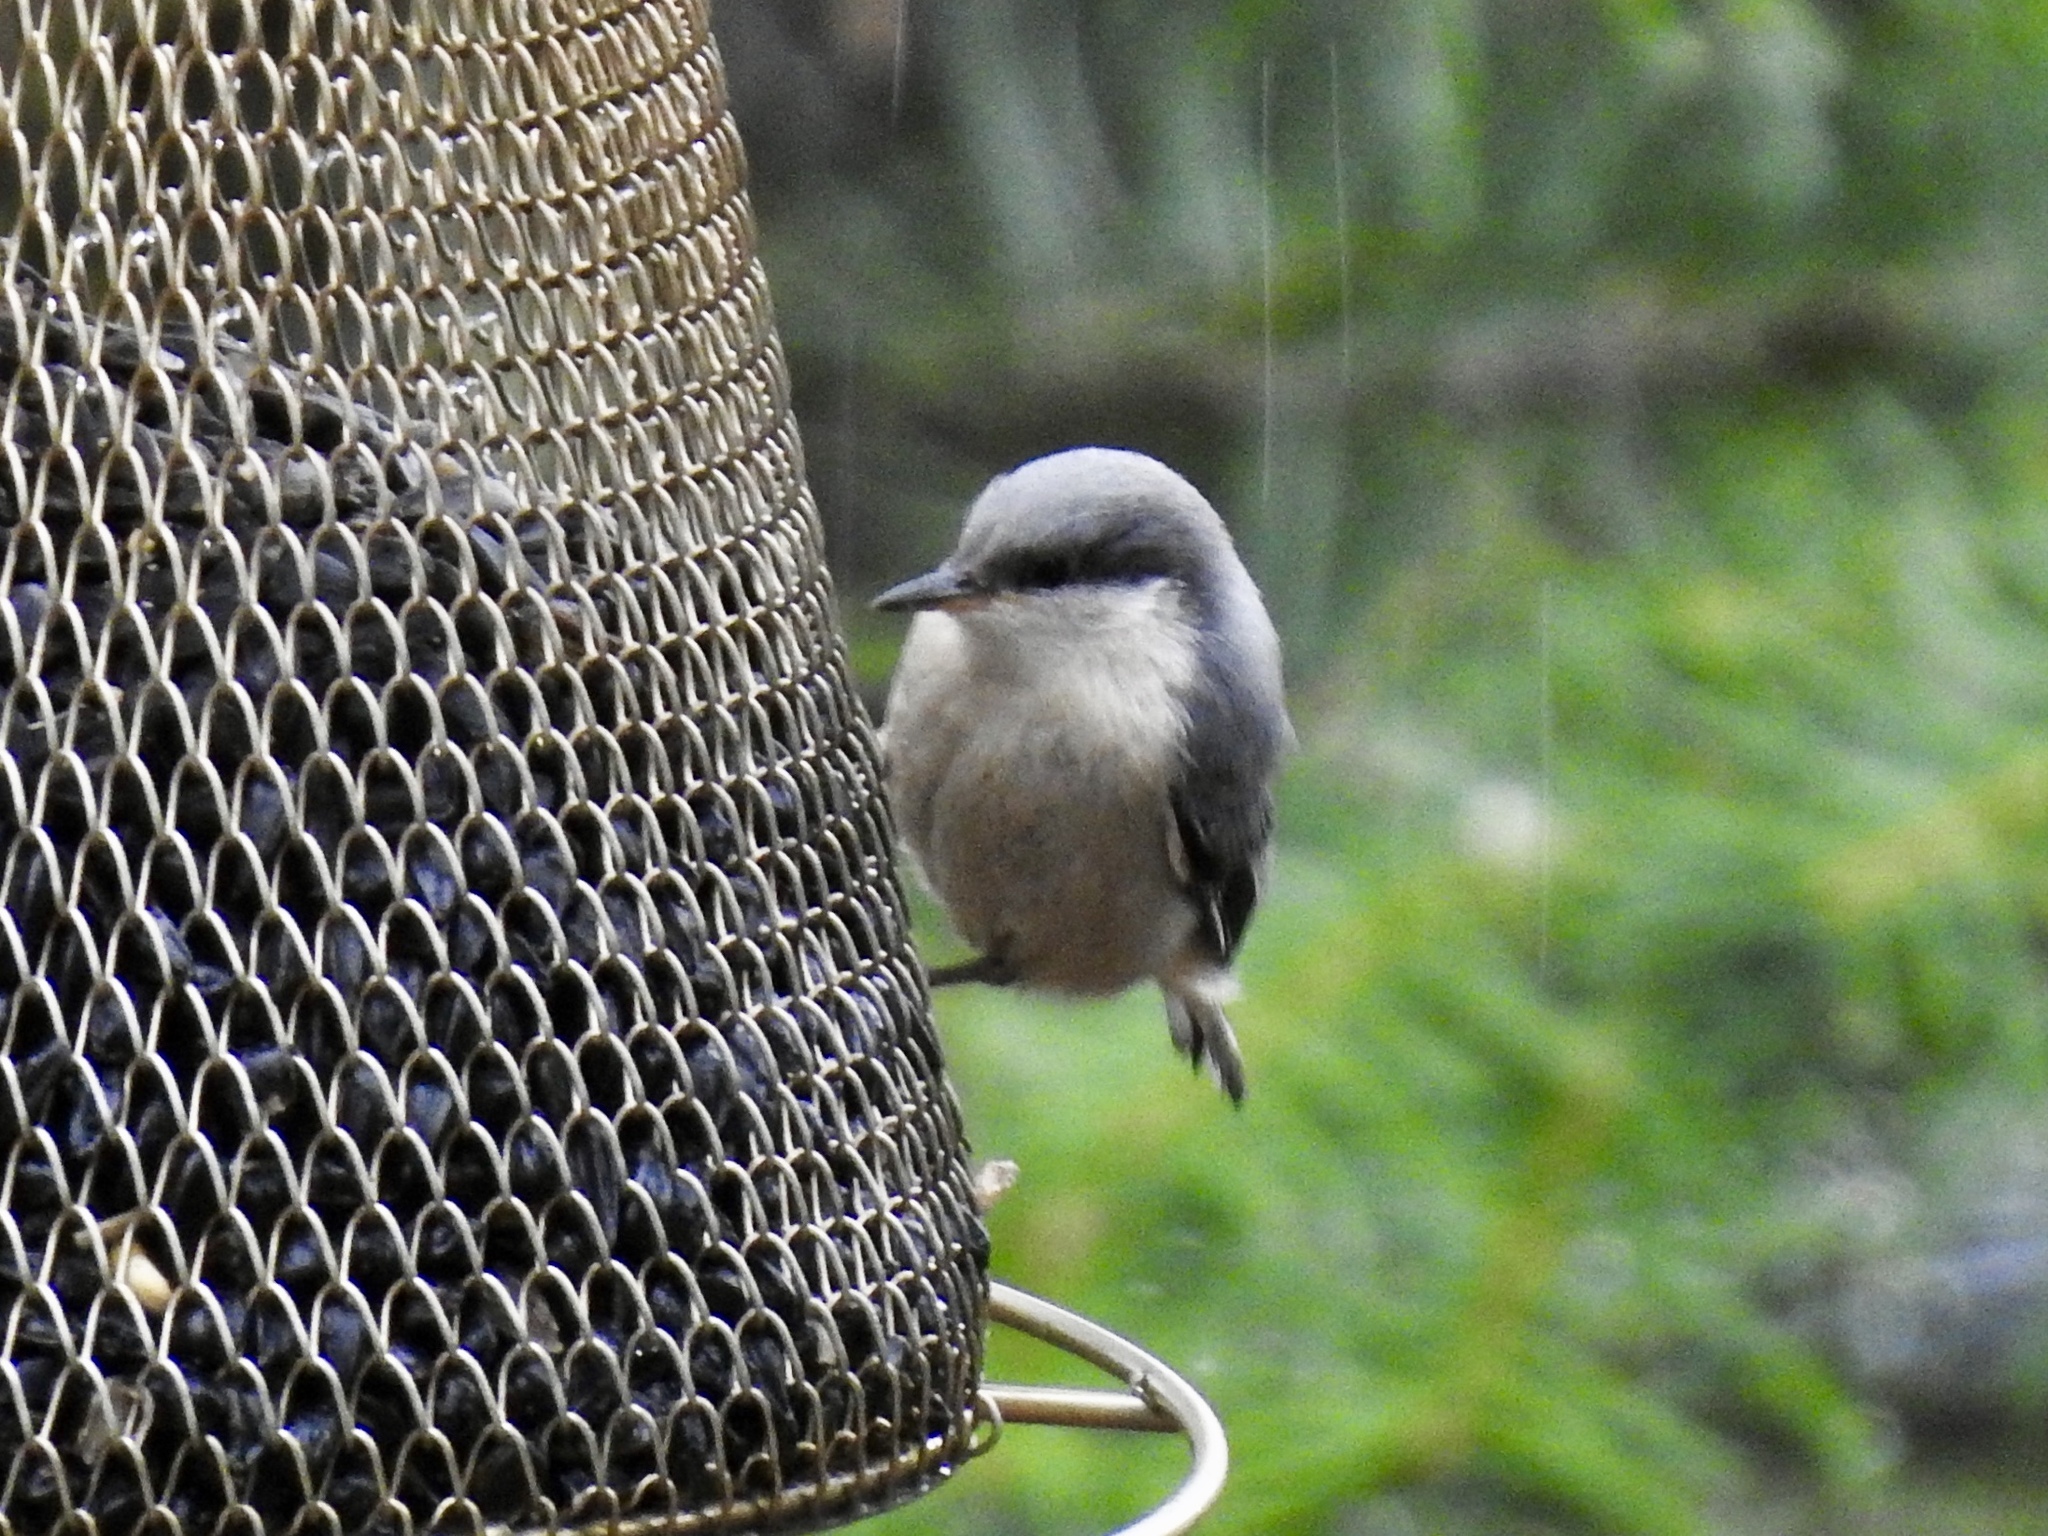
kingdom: Animalia
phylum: Chordata
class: Aves
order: Passeriformes
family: Sittidae
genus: Sitta
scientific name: Sitta pygmaea
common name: Pygmy nuthatch
